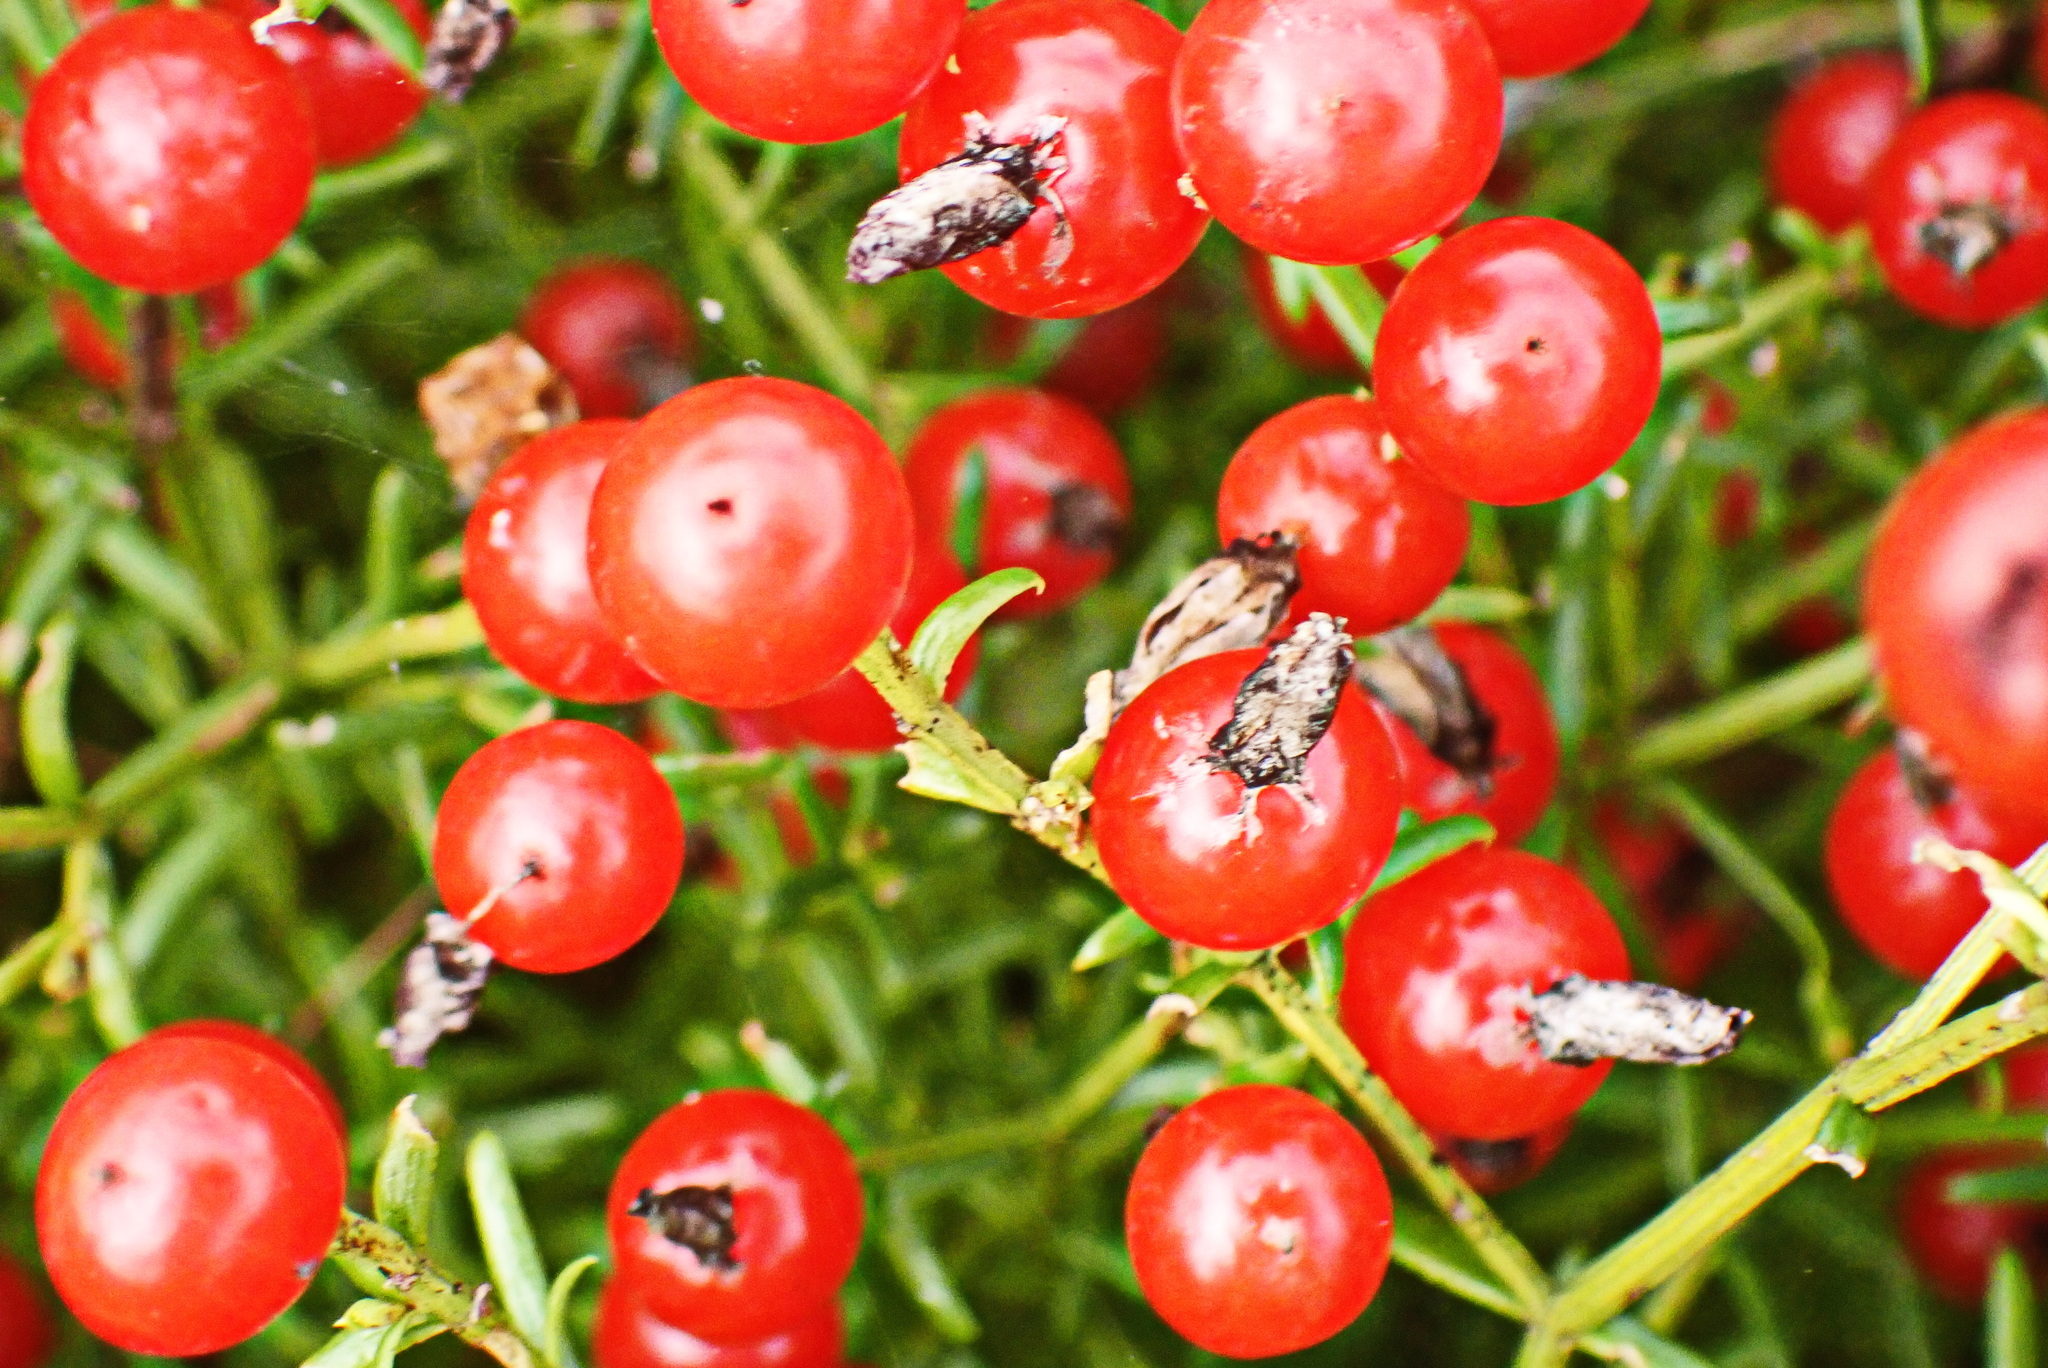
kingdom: Plantae
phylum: Tracheophyta
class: Magnoliopsida
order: Gentianales
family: Gentianaceae
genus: Chironia
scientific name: Chironia baccifera
